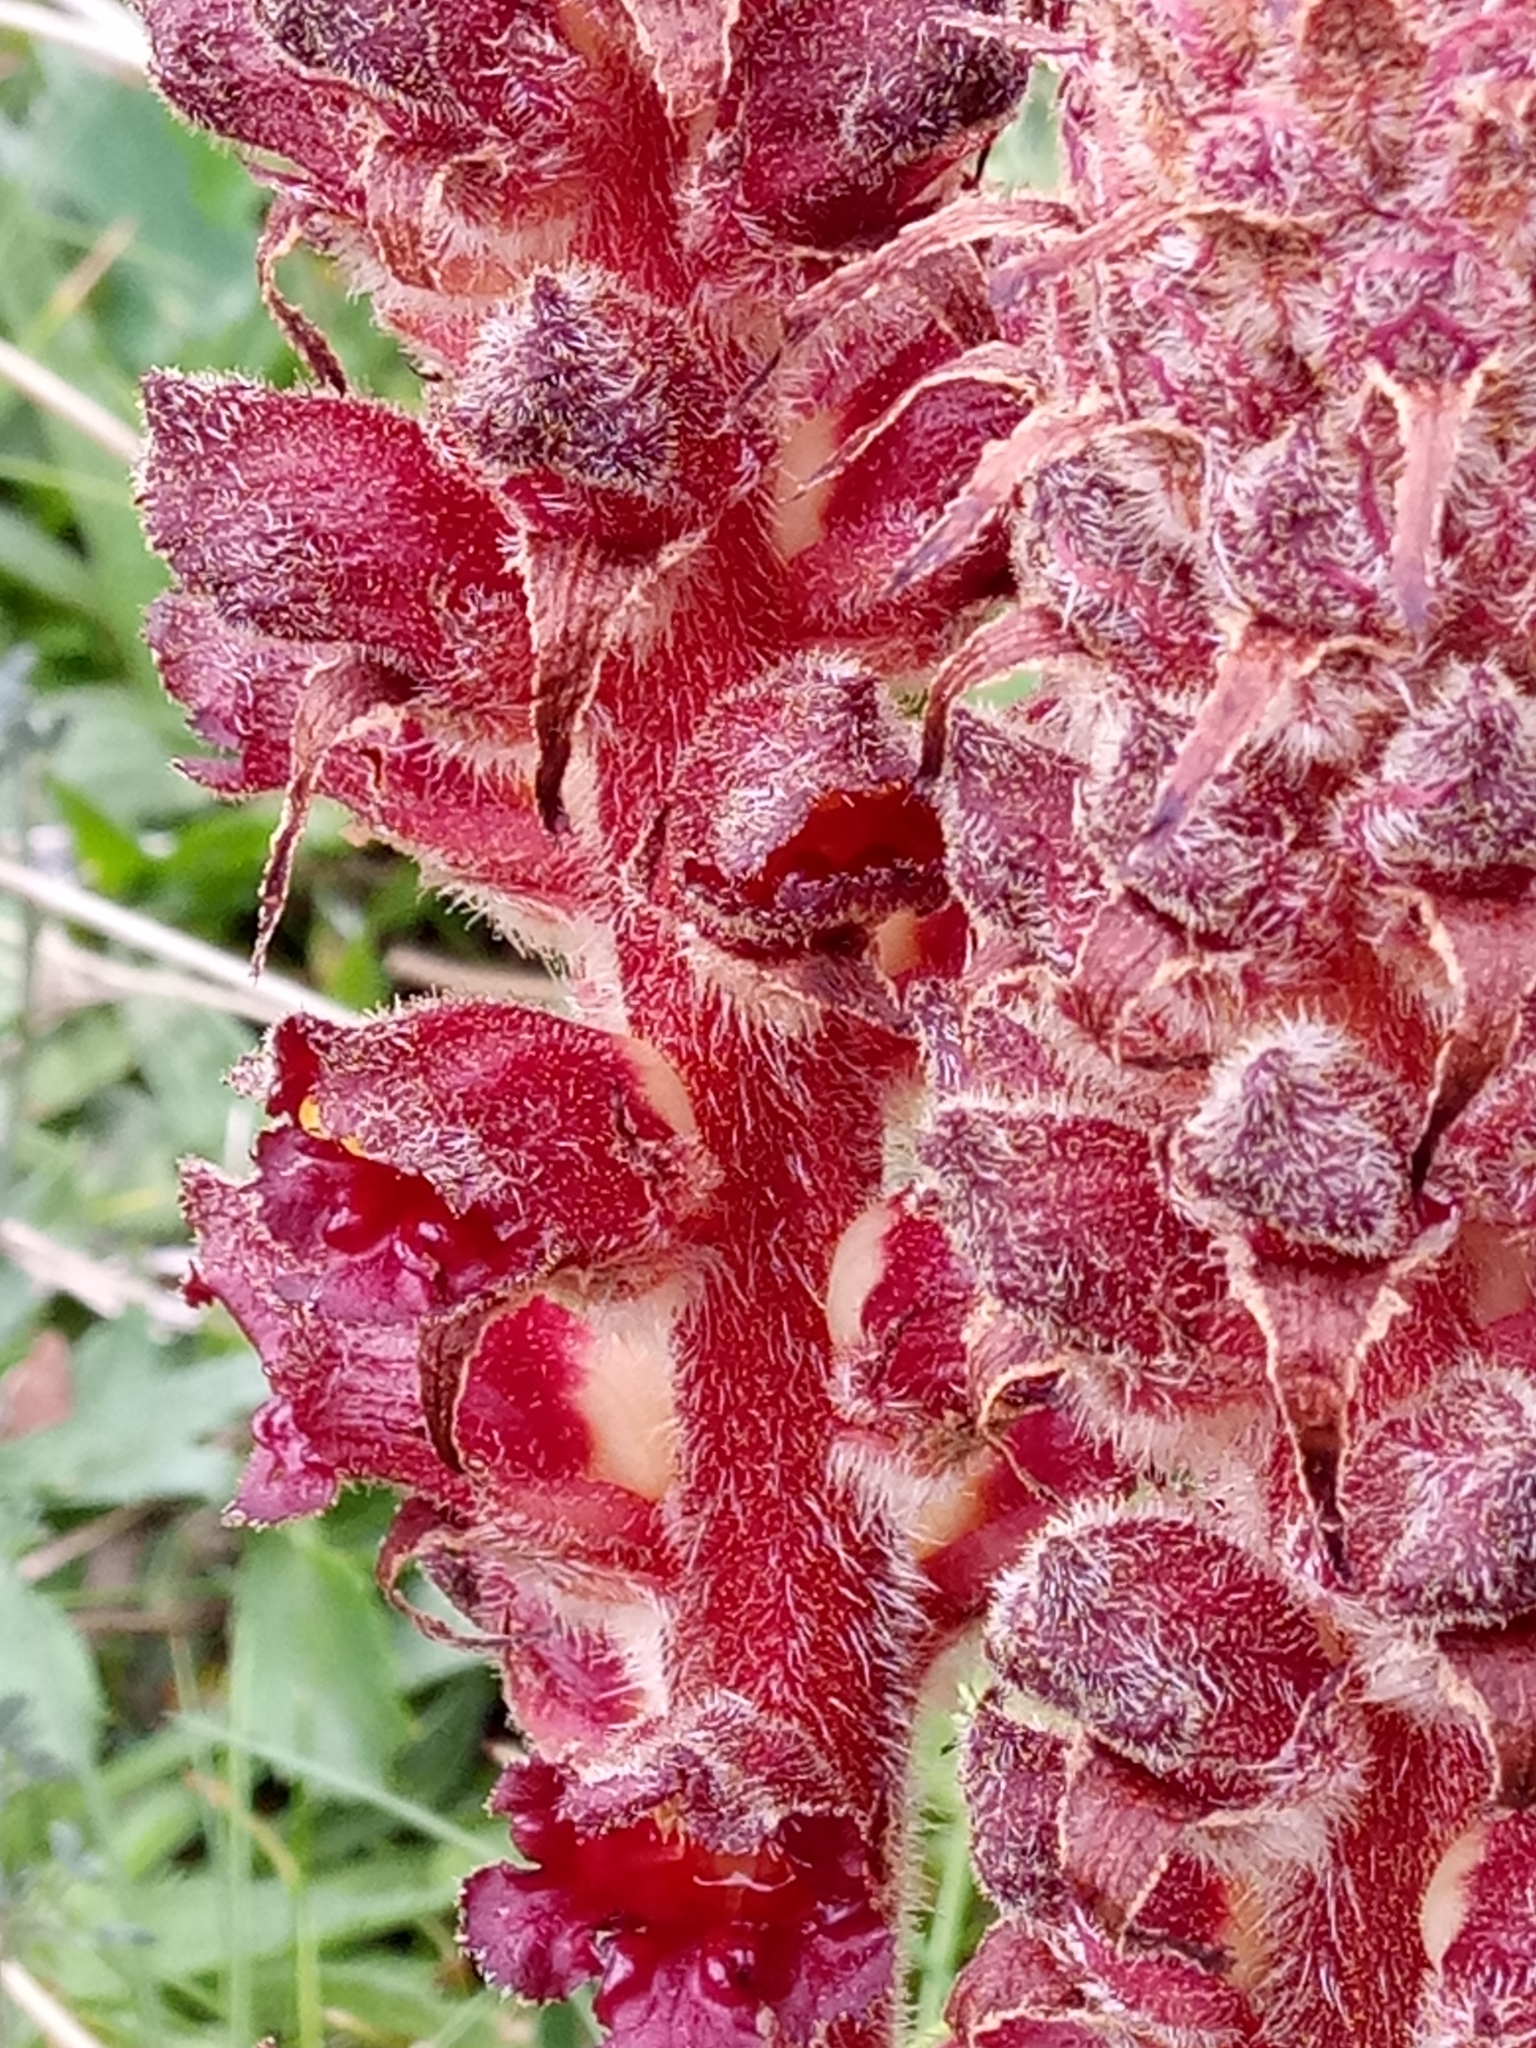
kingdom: Plantae
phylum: Tracheophyta
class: Magnoliopsida
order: Lamiales
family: Orobanchaceae
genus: Orobanche
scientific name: Orobanche variegata
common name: Variegated broomrape
